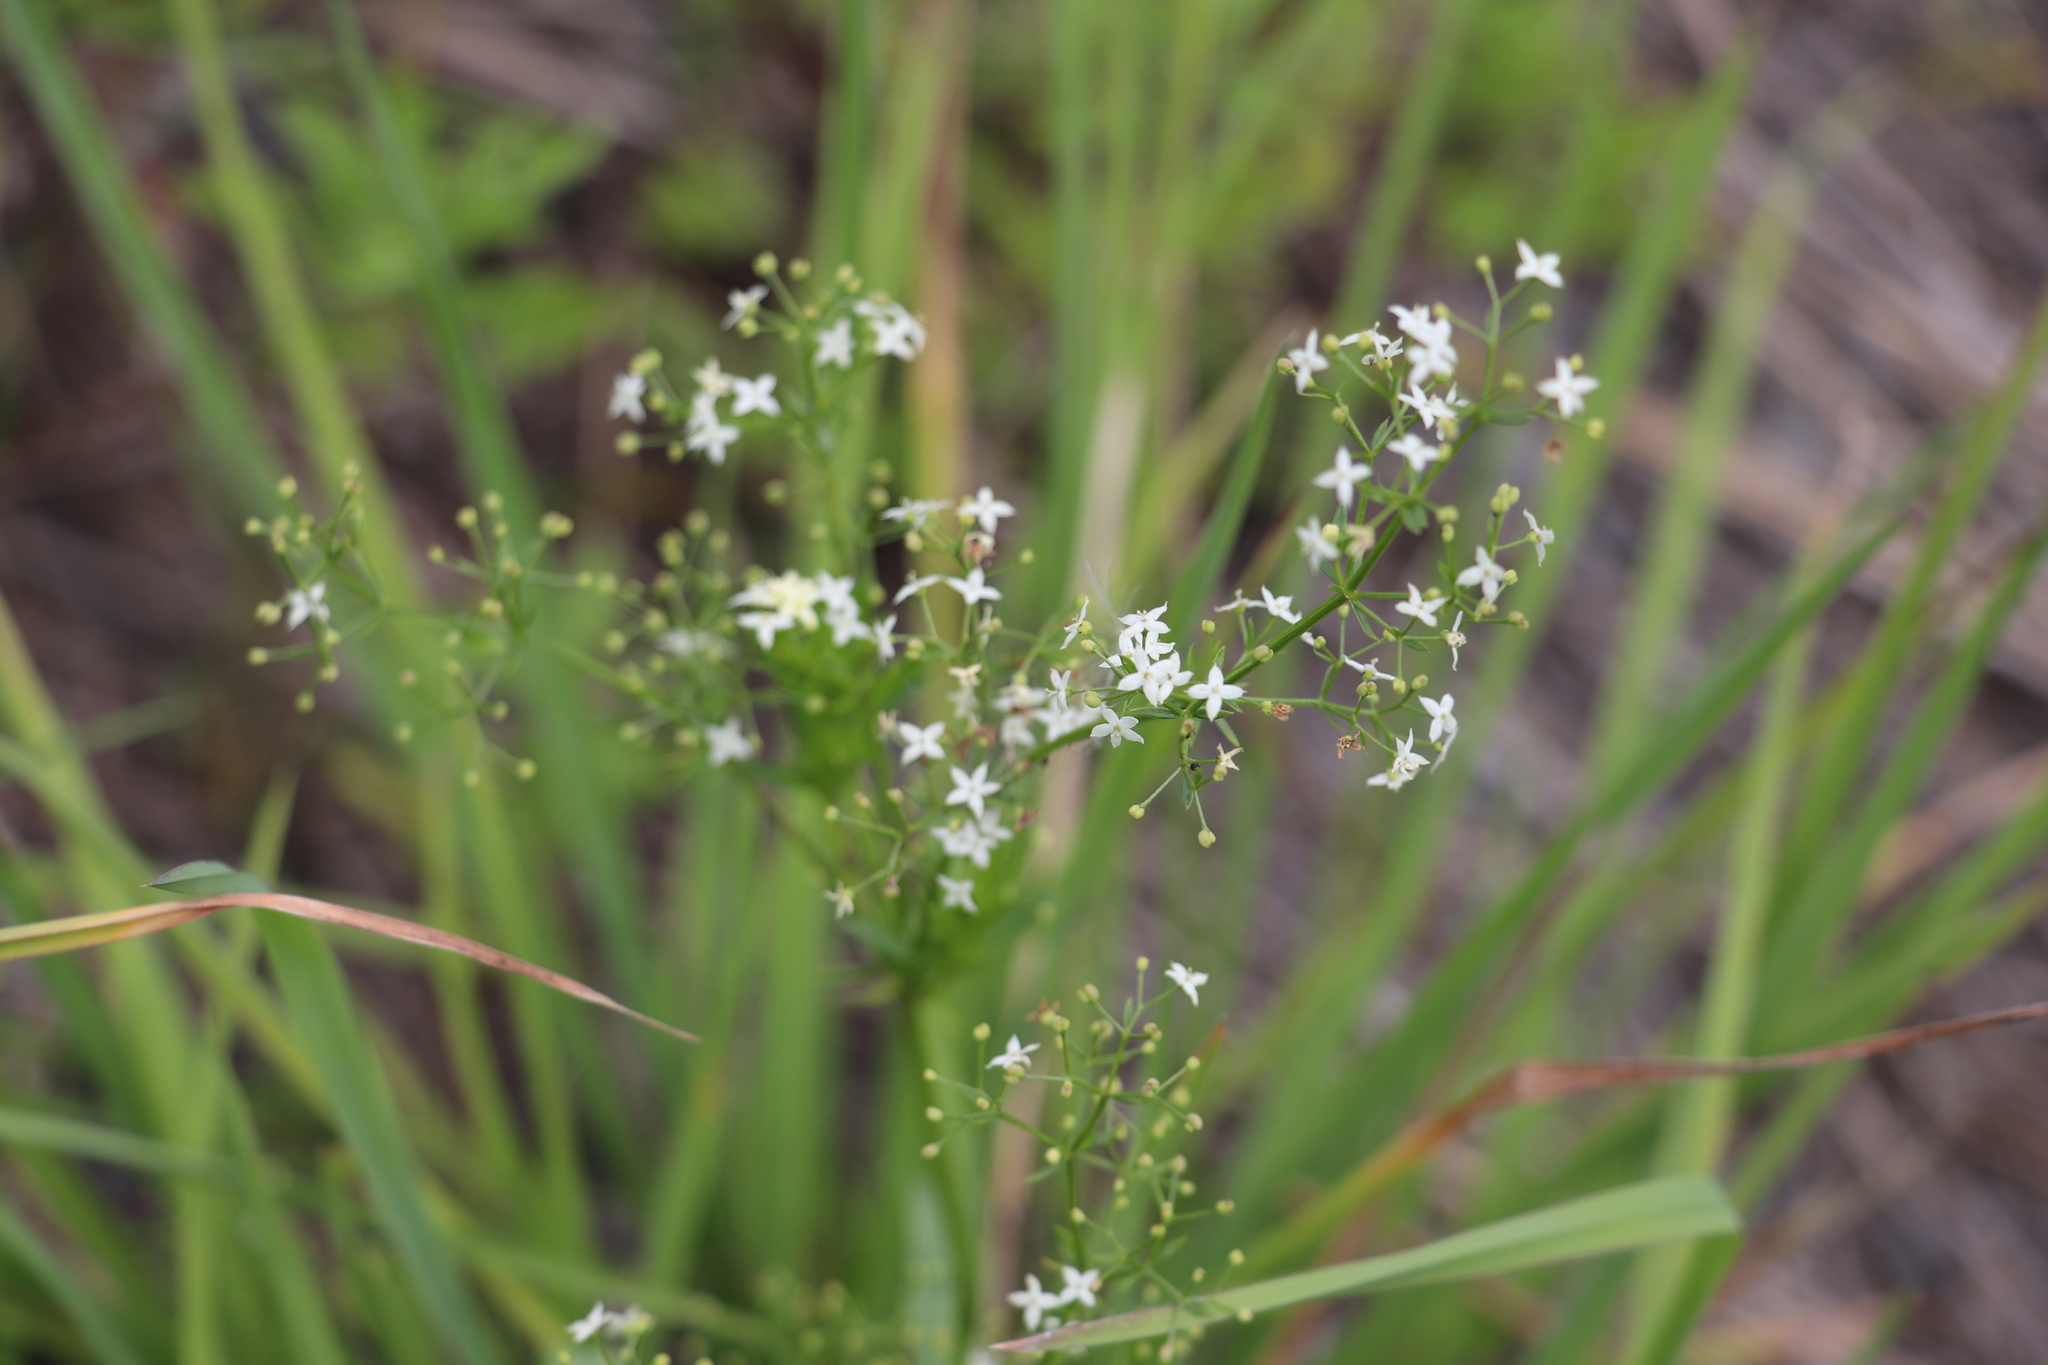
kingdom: Plantae
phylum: Tracheophyta
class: Magnoliopsida
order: Gentianales
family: Rubiaceae
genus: Galium
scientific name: Galium mollugo
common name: Hedge bedstraw
